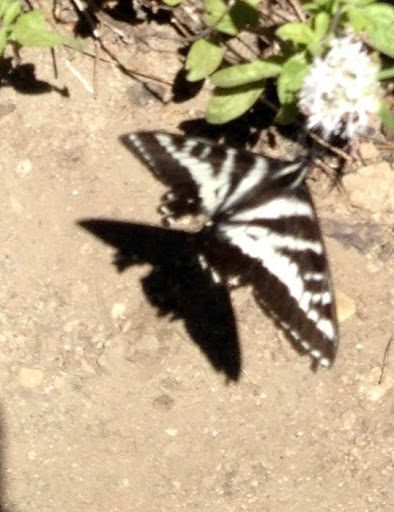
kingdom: Animalia
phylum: Arthropoda
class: Insecta
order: Lepidoptera
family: Papilionidae
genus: Papilio
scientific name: Papilio eurymedon
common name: Pale tiger swallowtail
